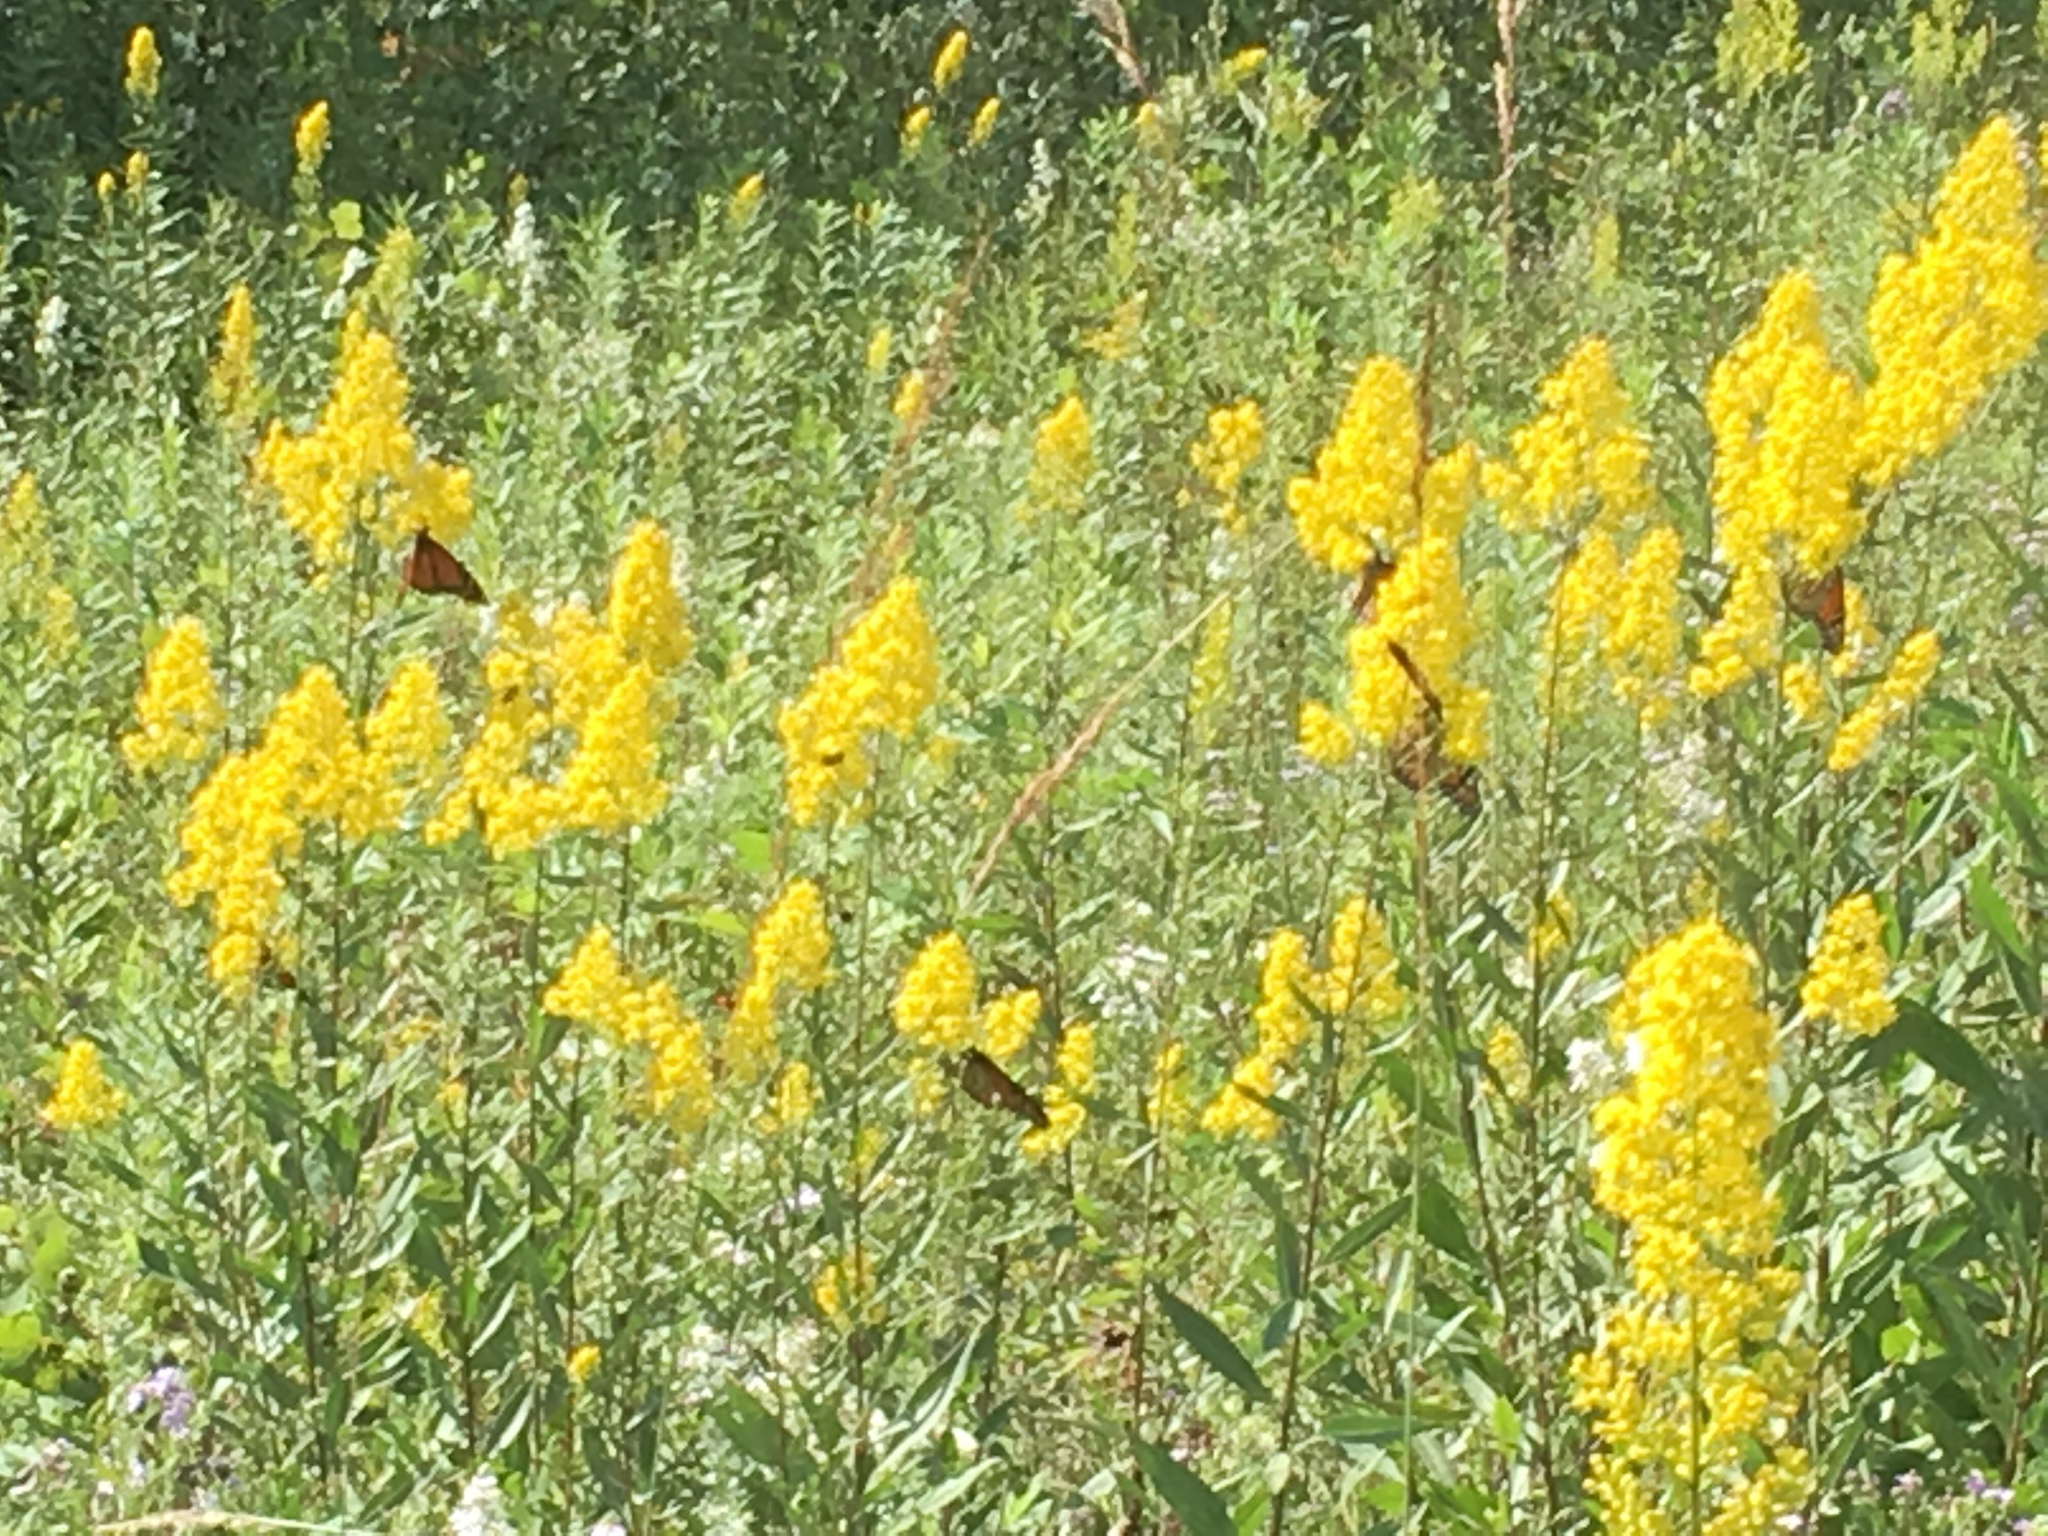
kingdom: Animalia
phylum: Arthropoda
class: Insecta
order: Lepidoptera
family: Nymphalidae
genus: Danaus
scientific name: Danaus plexippus
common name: Monarch
